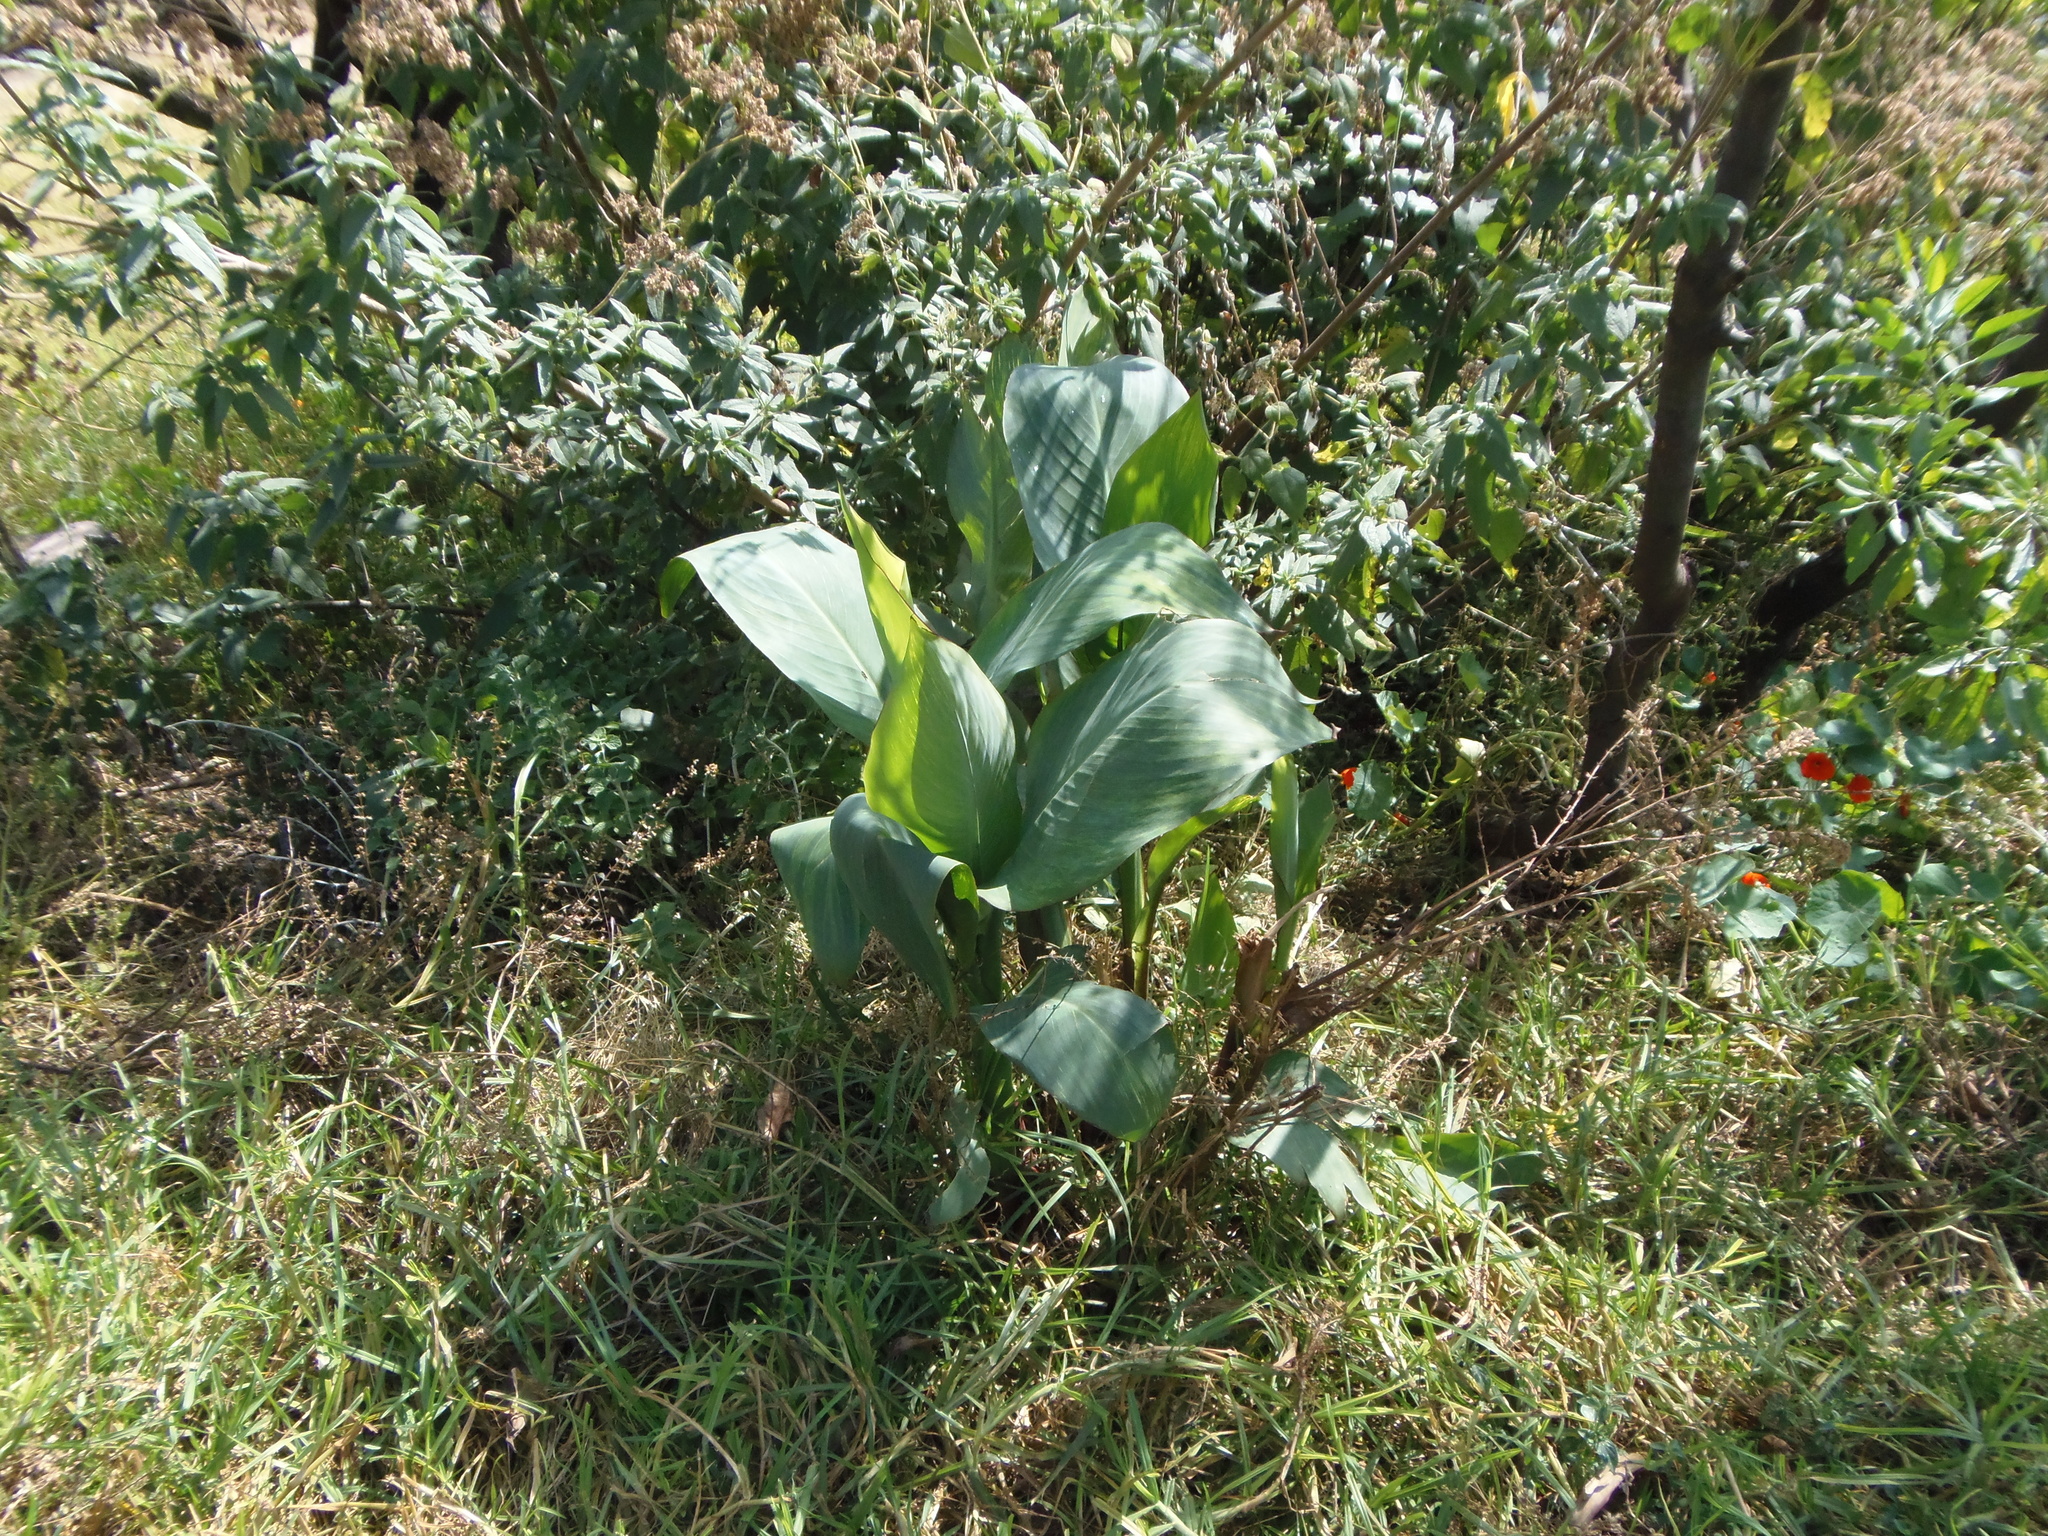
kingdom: Plantae
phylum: Tracheophyta
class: Liliopsida
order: Zingiberales
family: Cannaceae
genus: Canna
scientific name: Canna
